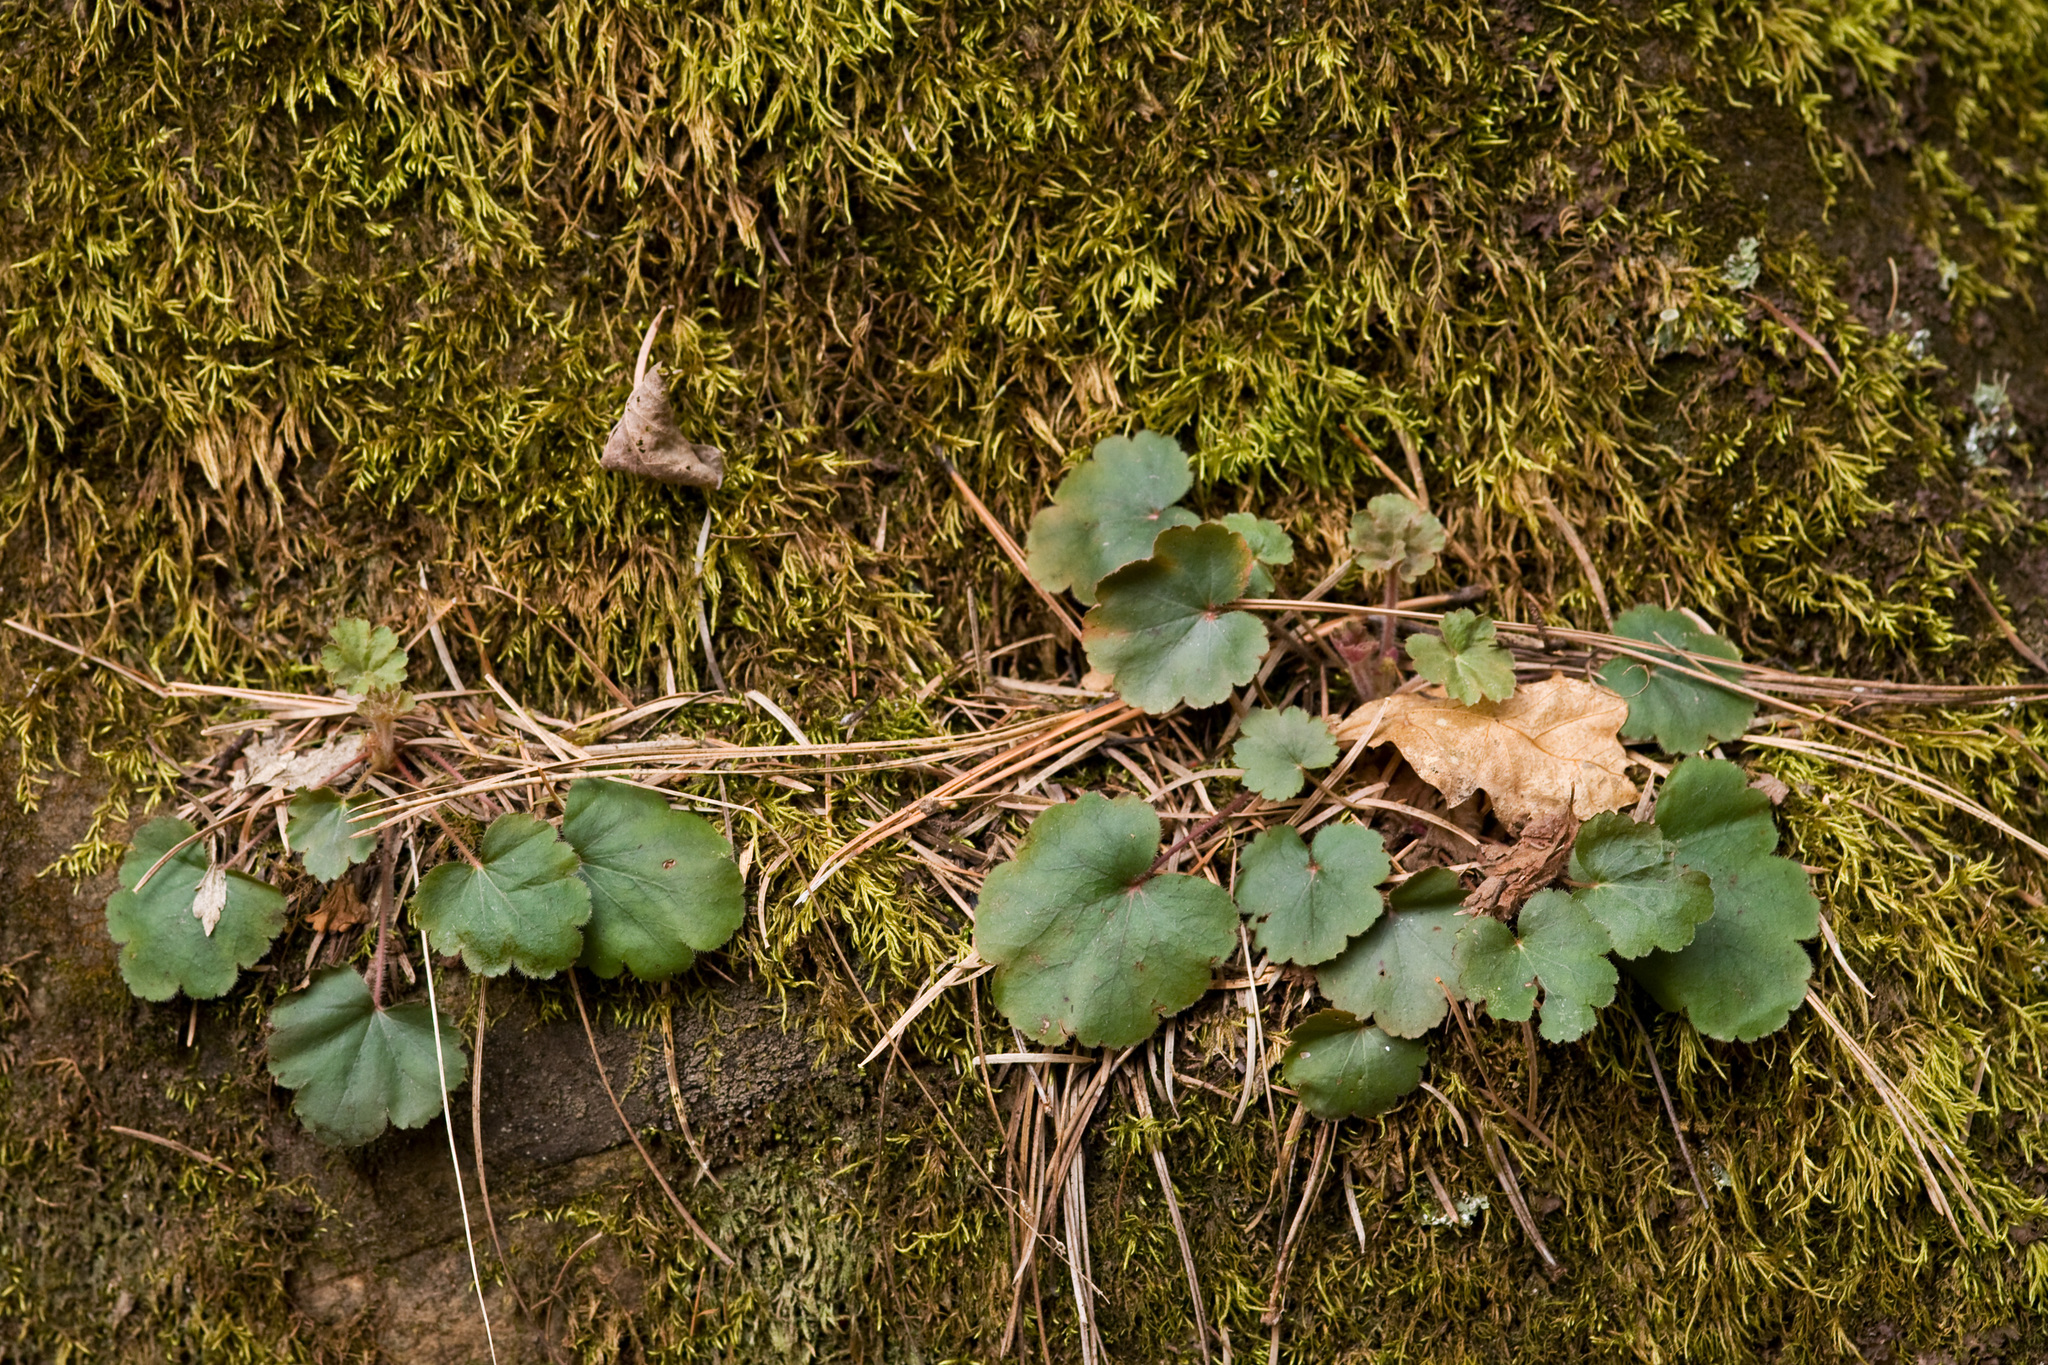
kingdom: Plantae
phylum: Tracheophyta
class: Magnoliopsida
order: Saxifragales
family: Saxifragaceae
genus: Heuchera
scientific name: Heuchera inconstans
